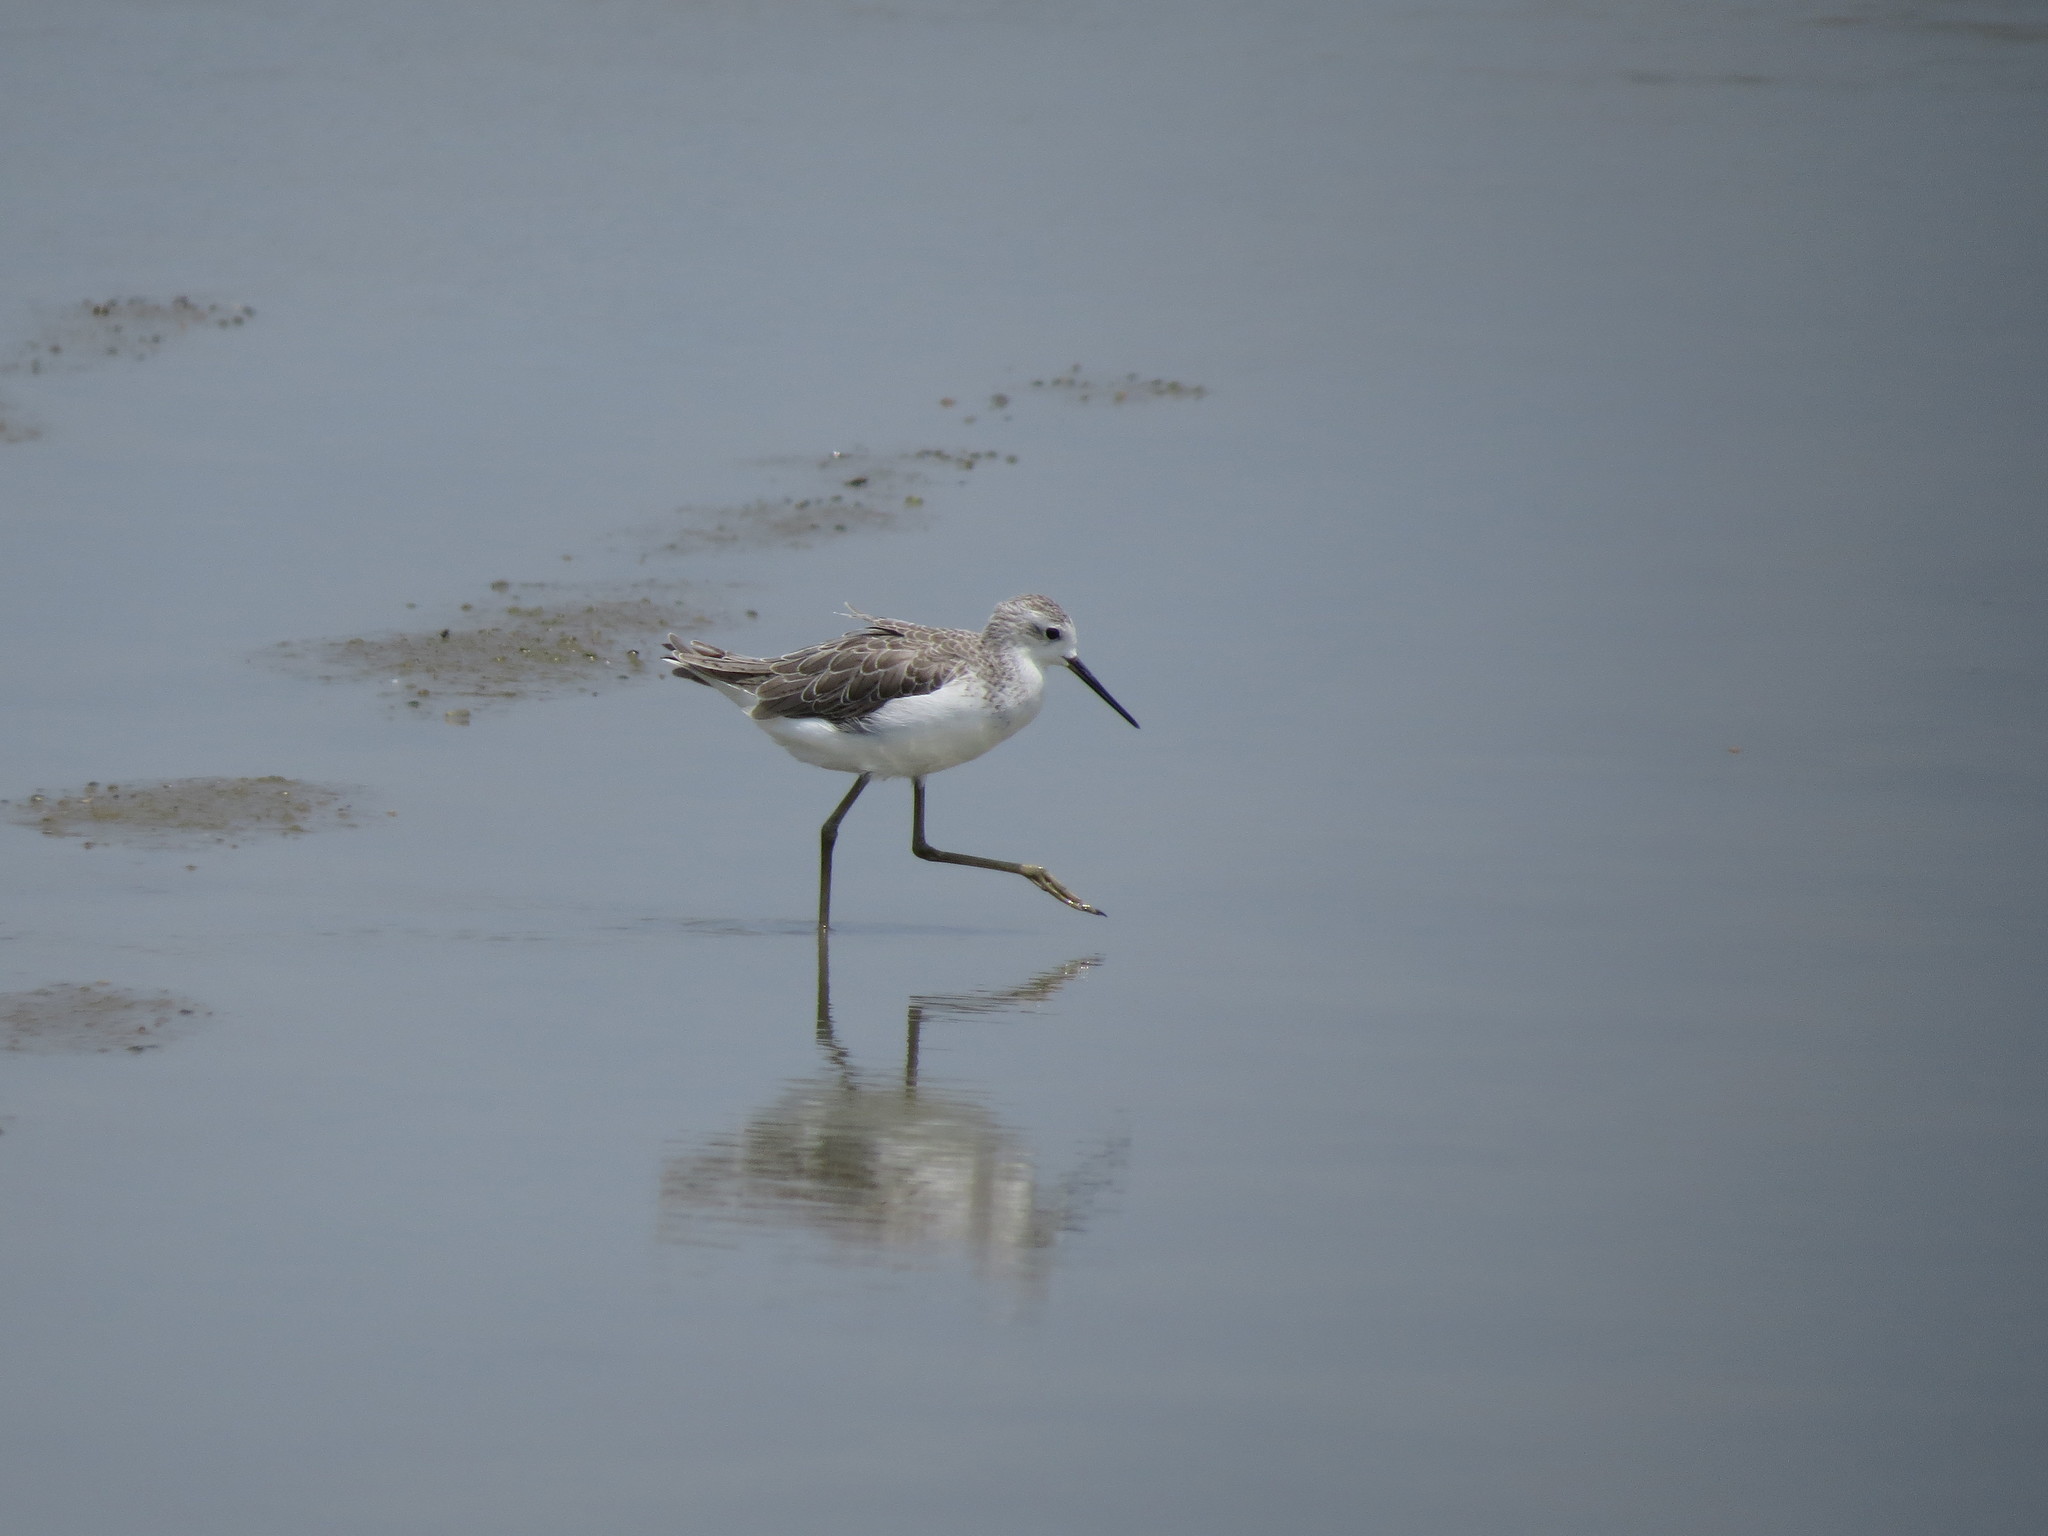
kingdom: Animalia
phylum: Chordata
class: Aves
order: Charadriiformes
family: Scolopacidae
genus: Tringa
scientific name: Tringa stagnatilis
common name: Marsh sandpiper
